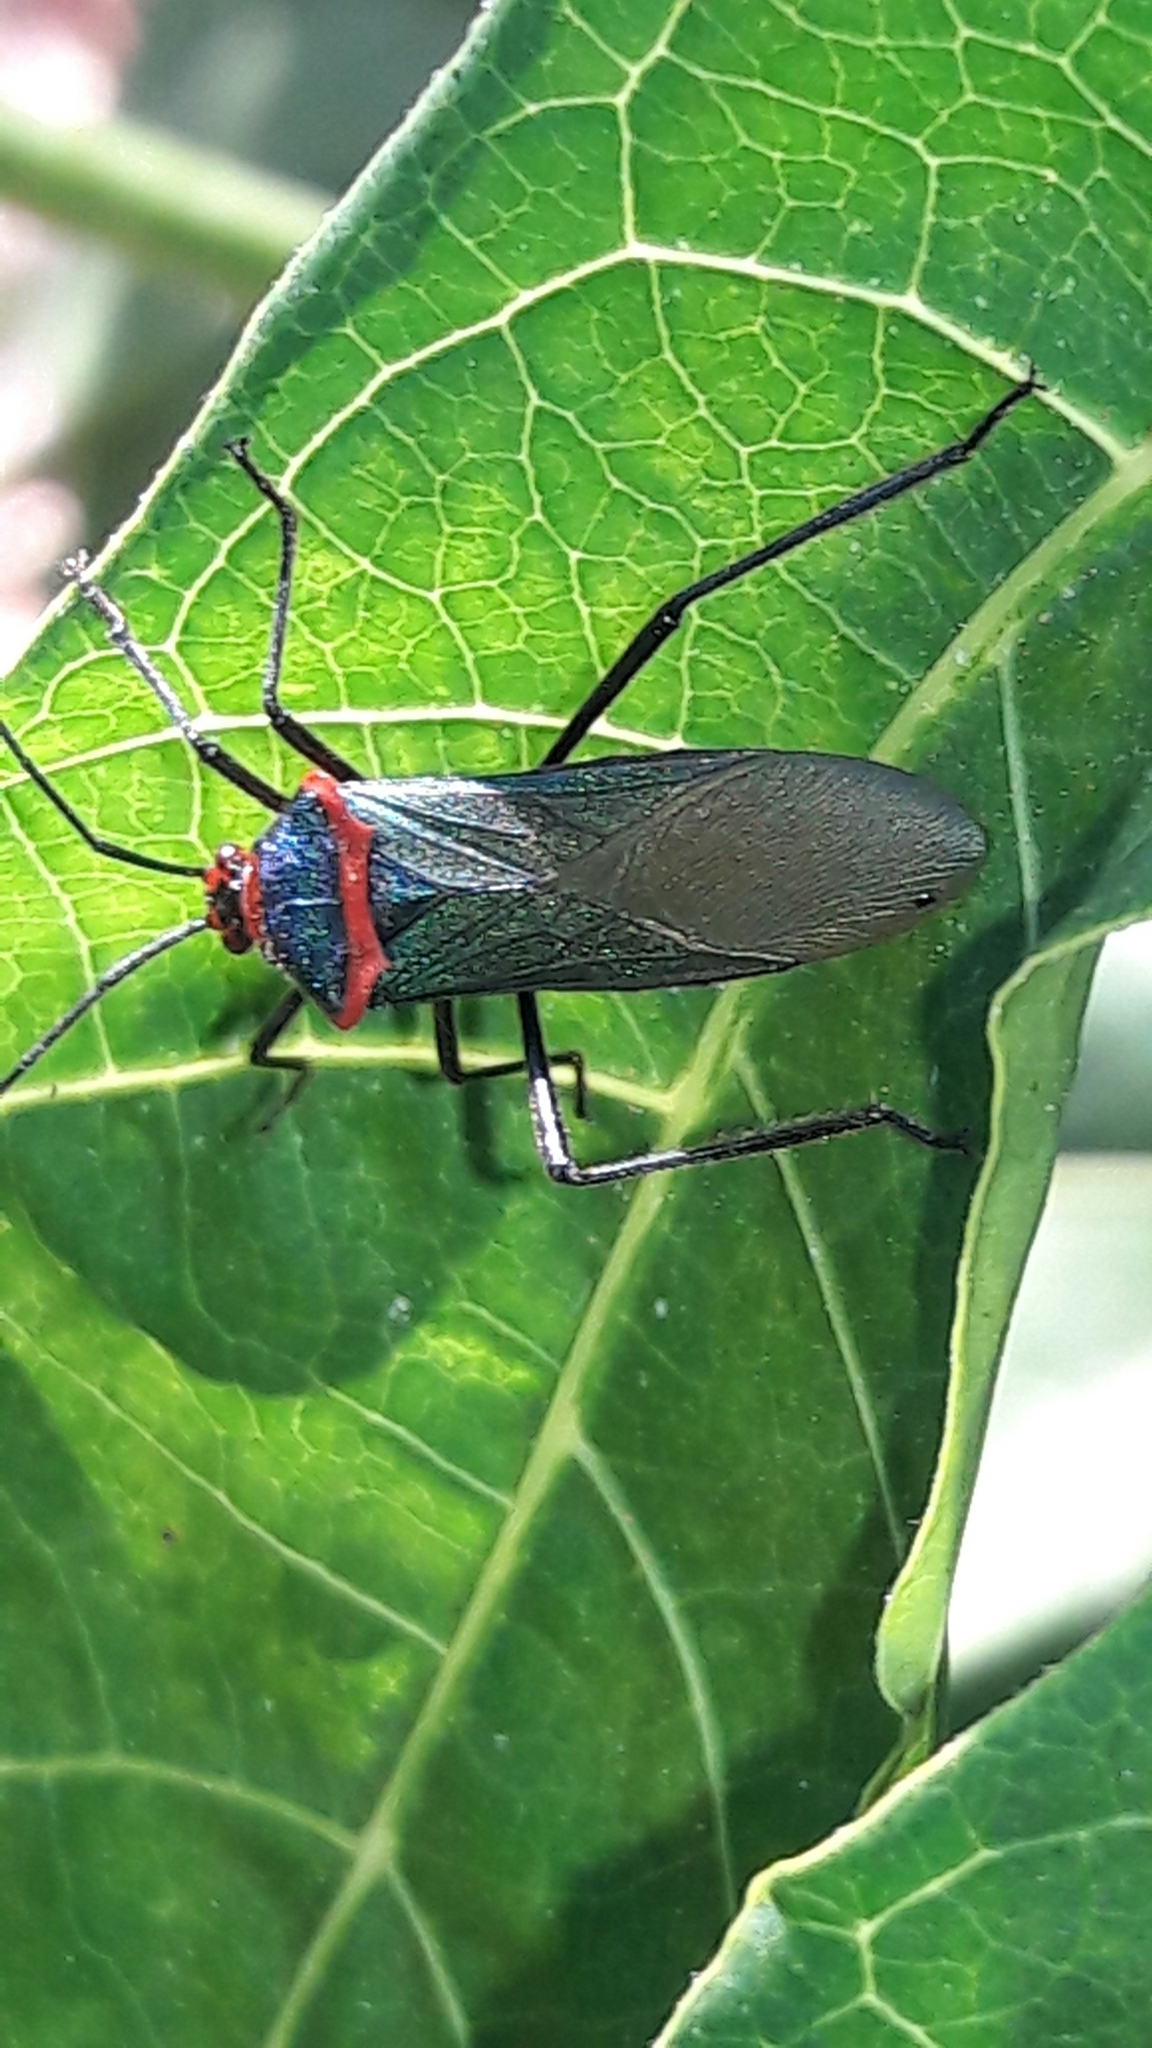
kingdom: Animalia
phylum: Arthropoda
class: Insecta
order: Hemiptera
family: Coreidae
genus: Sphictyrtus
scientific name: Sphictyrtus chrysis
